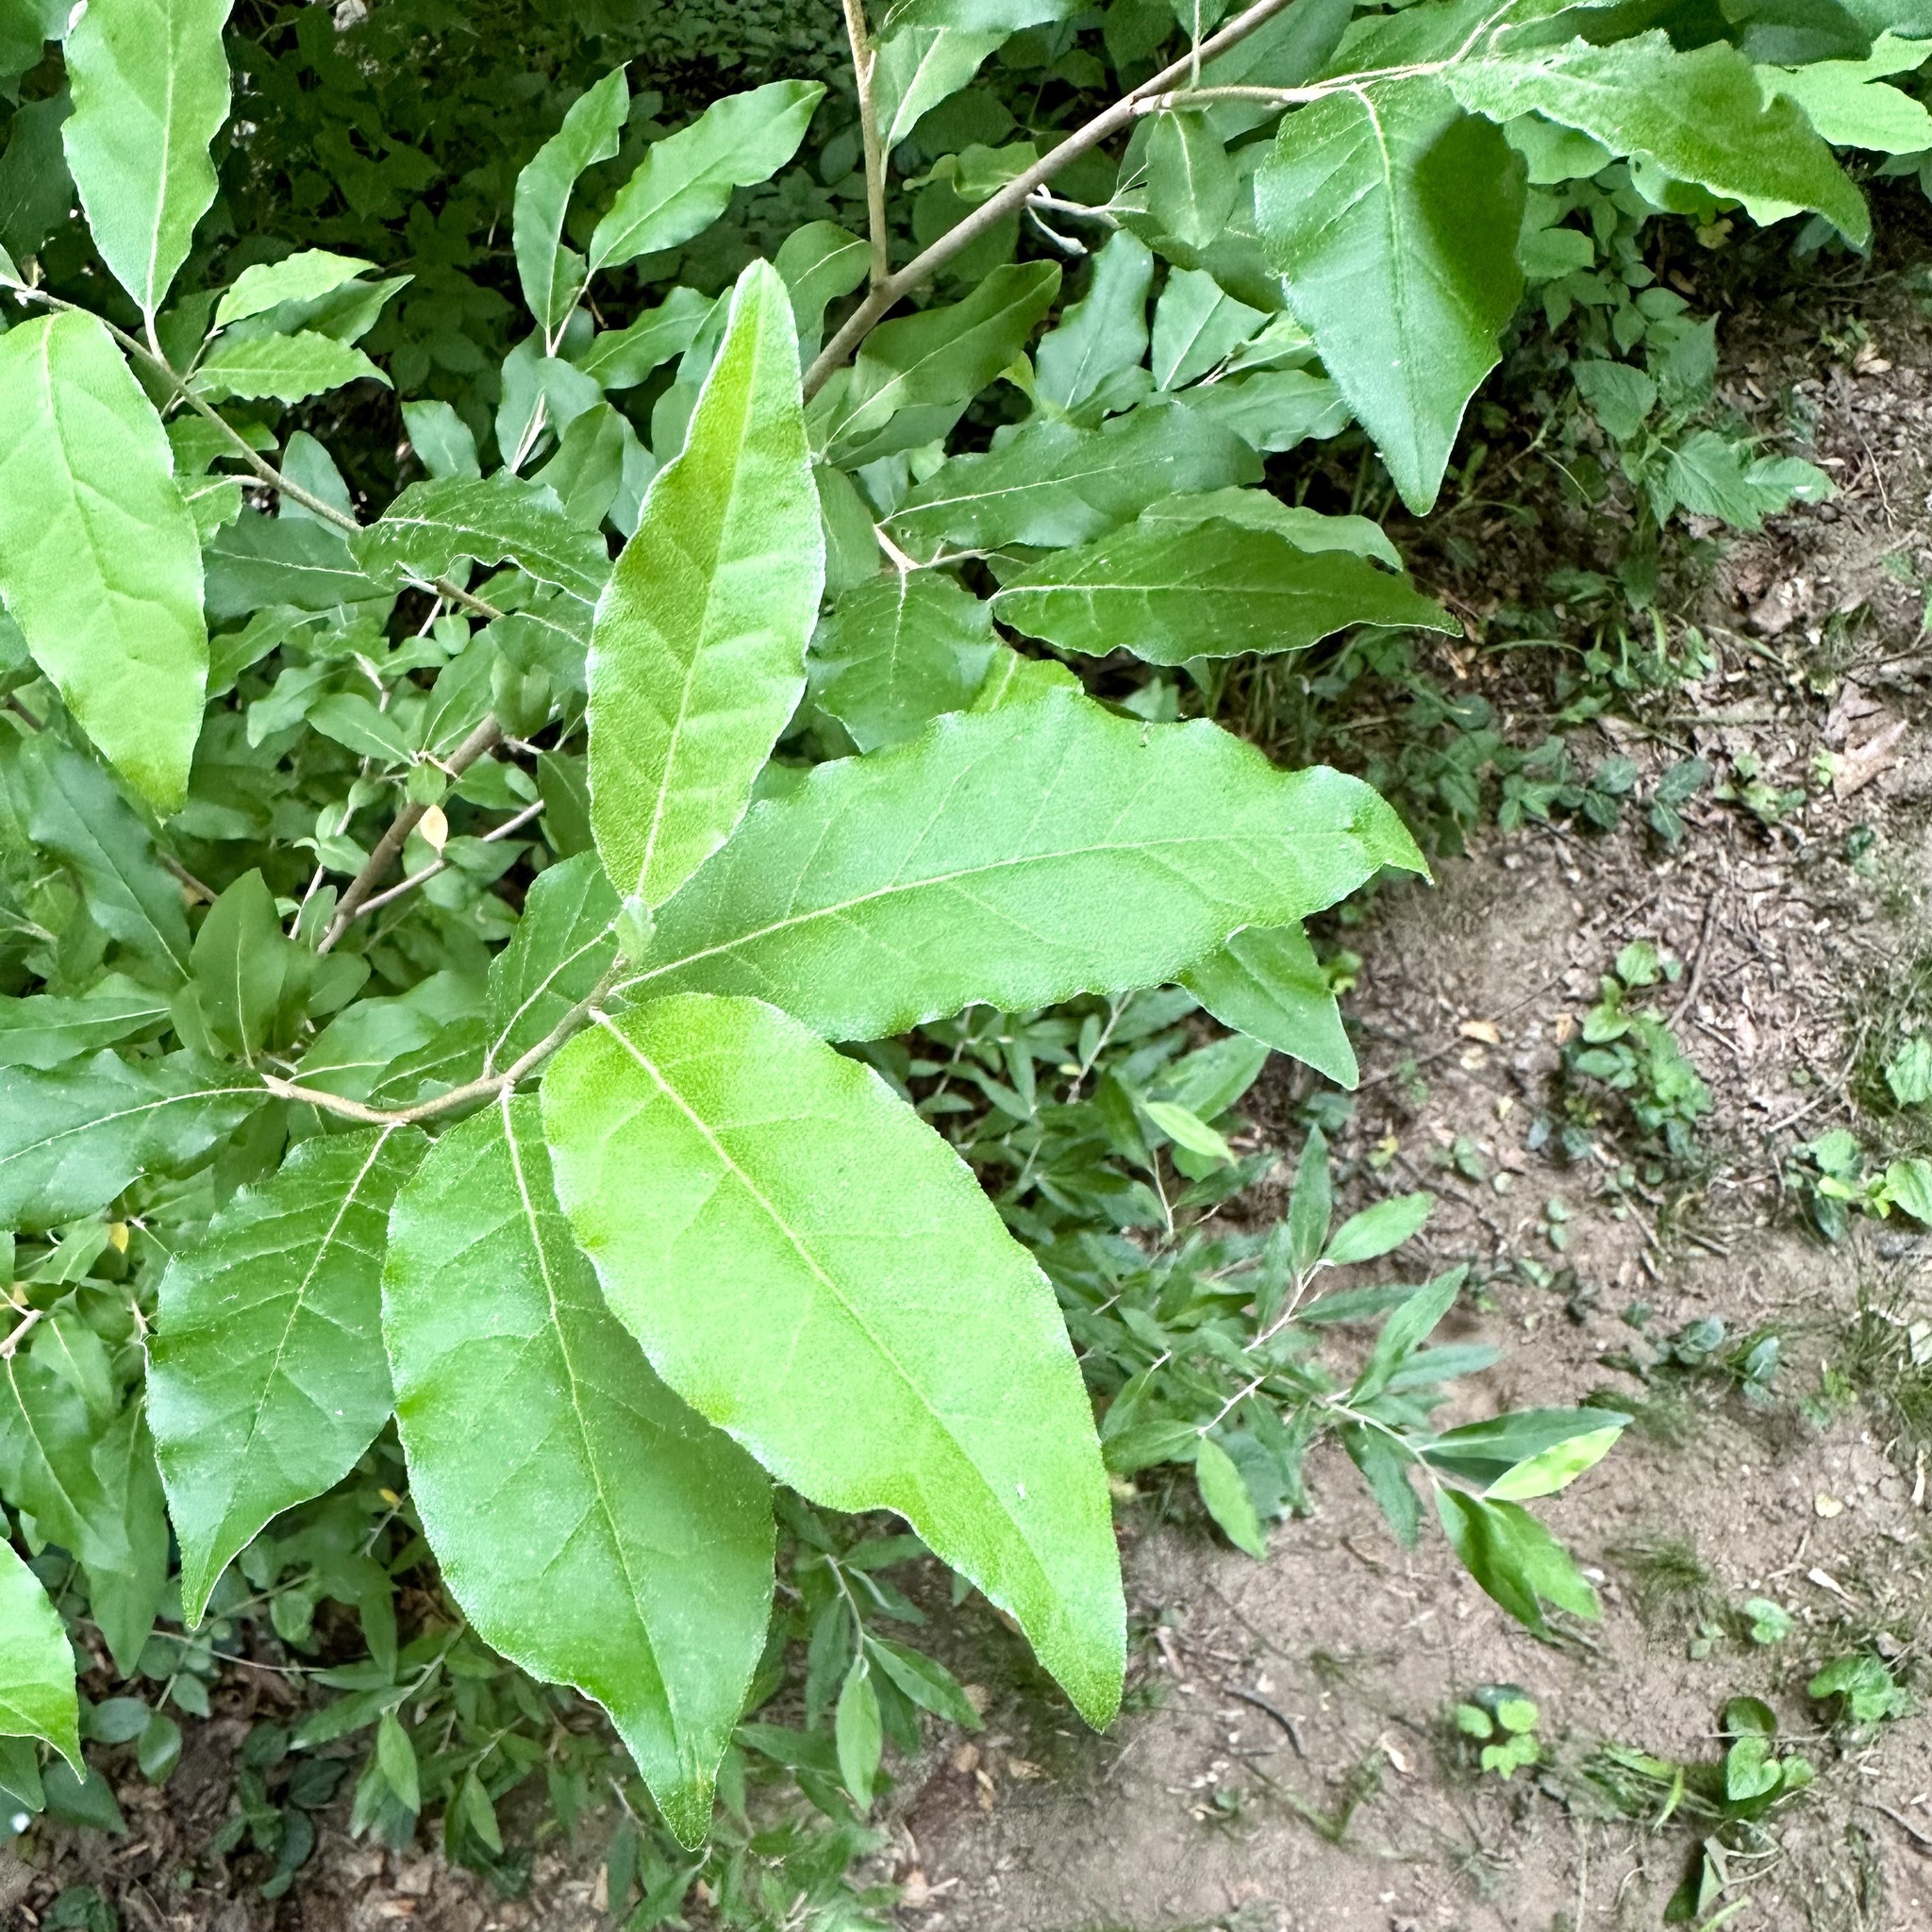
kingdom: Plantae
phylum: Tracheophyta
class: Magnoliopsida
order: Rosales
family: Elaeagnaceae
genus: Elaeagnus
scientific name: Elaeagnus umbellata
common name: Autumn olive
